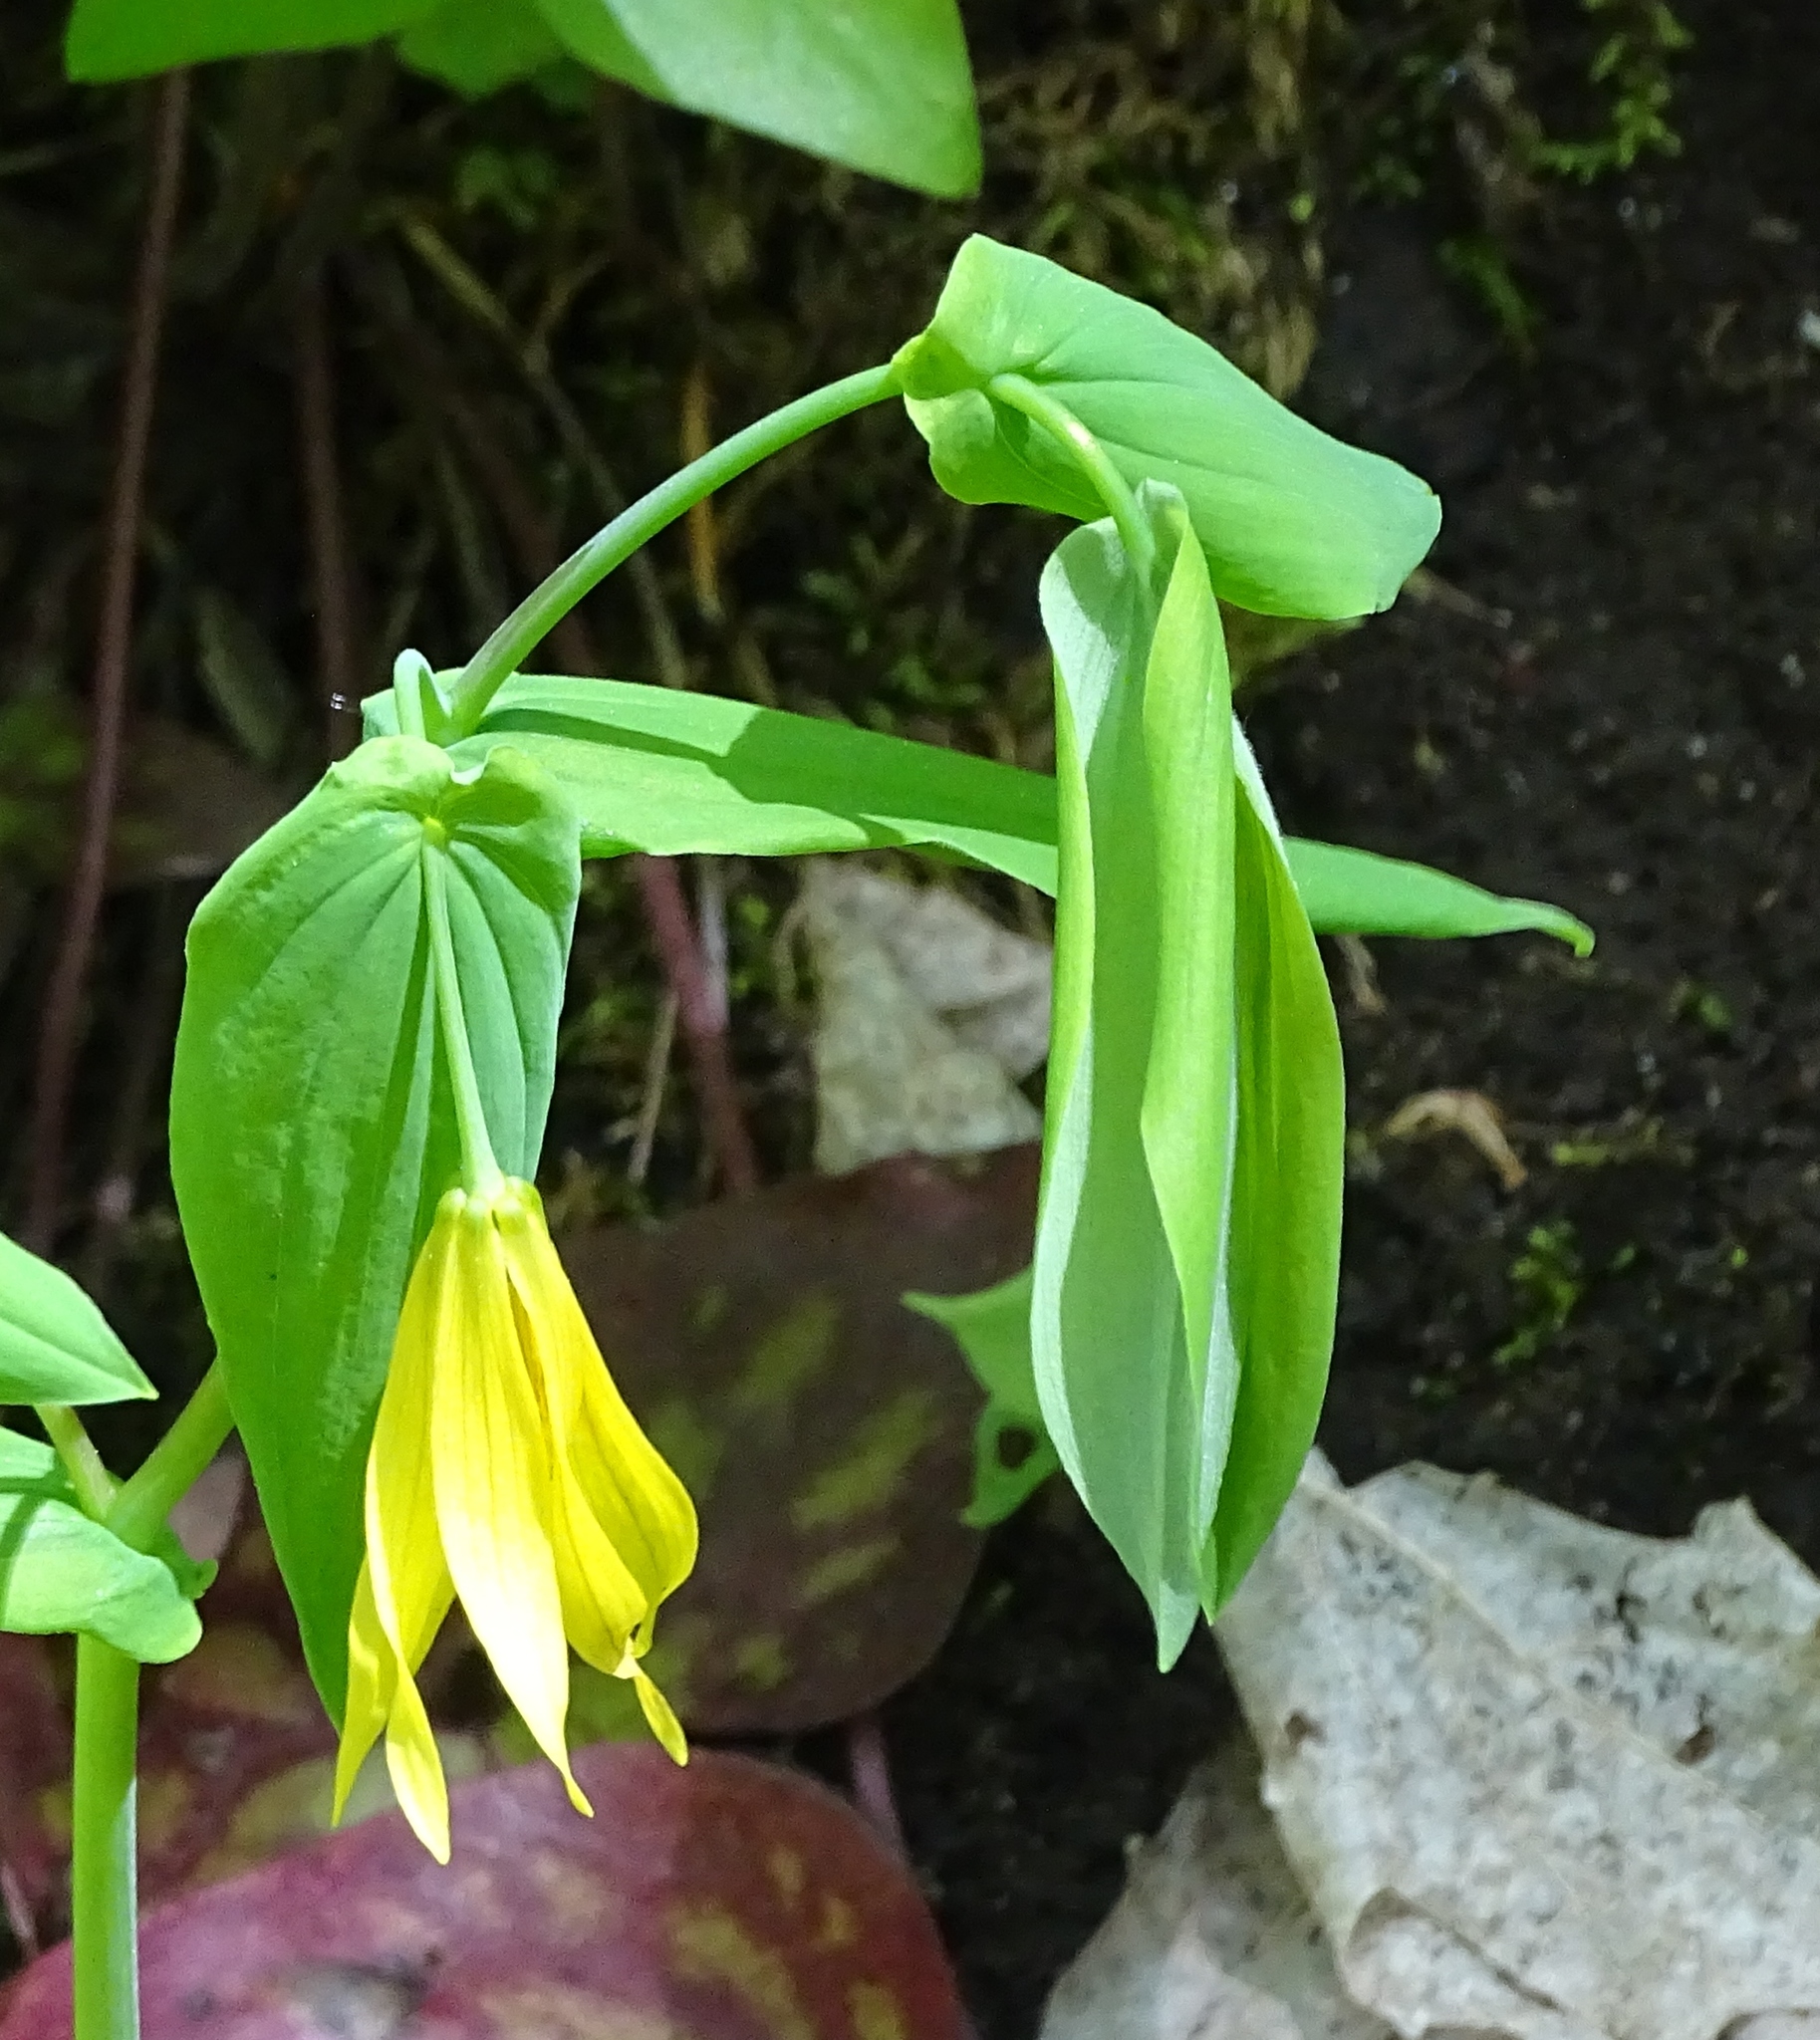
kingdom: Plantae
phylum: Tracheophyta
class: Liliopsida
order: Liliales
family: Colchicaceae
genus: Uvularia
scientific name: Uvularia grandiflora
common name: Bellwort
